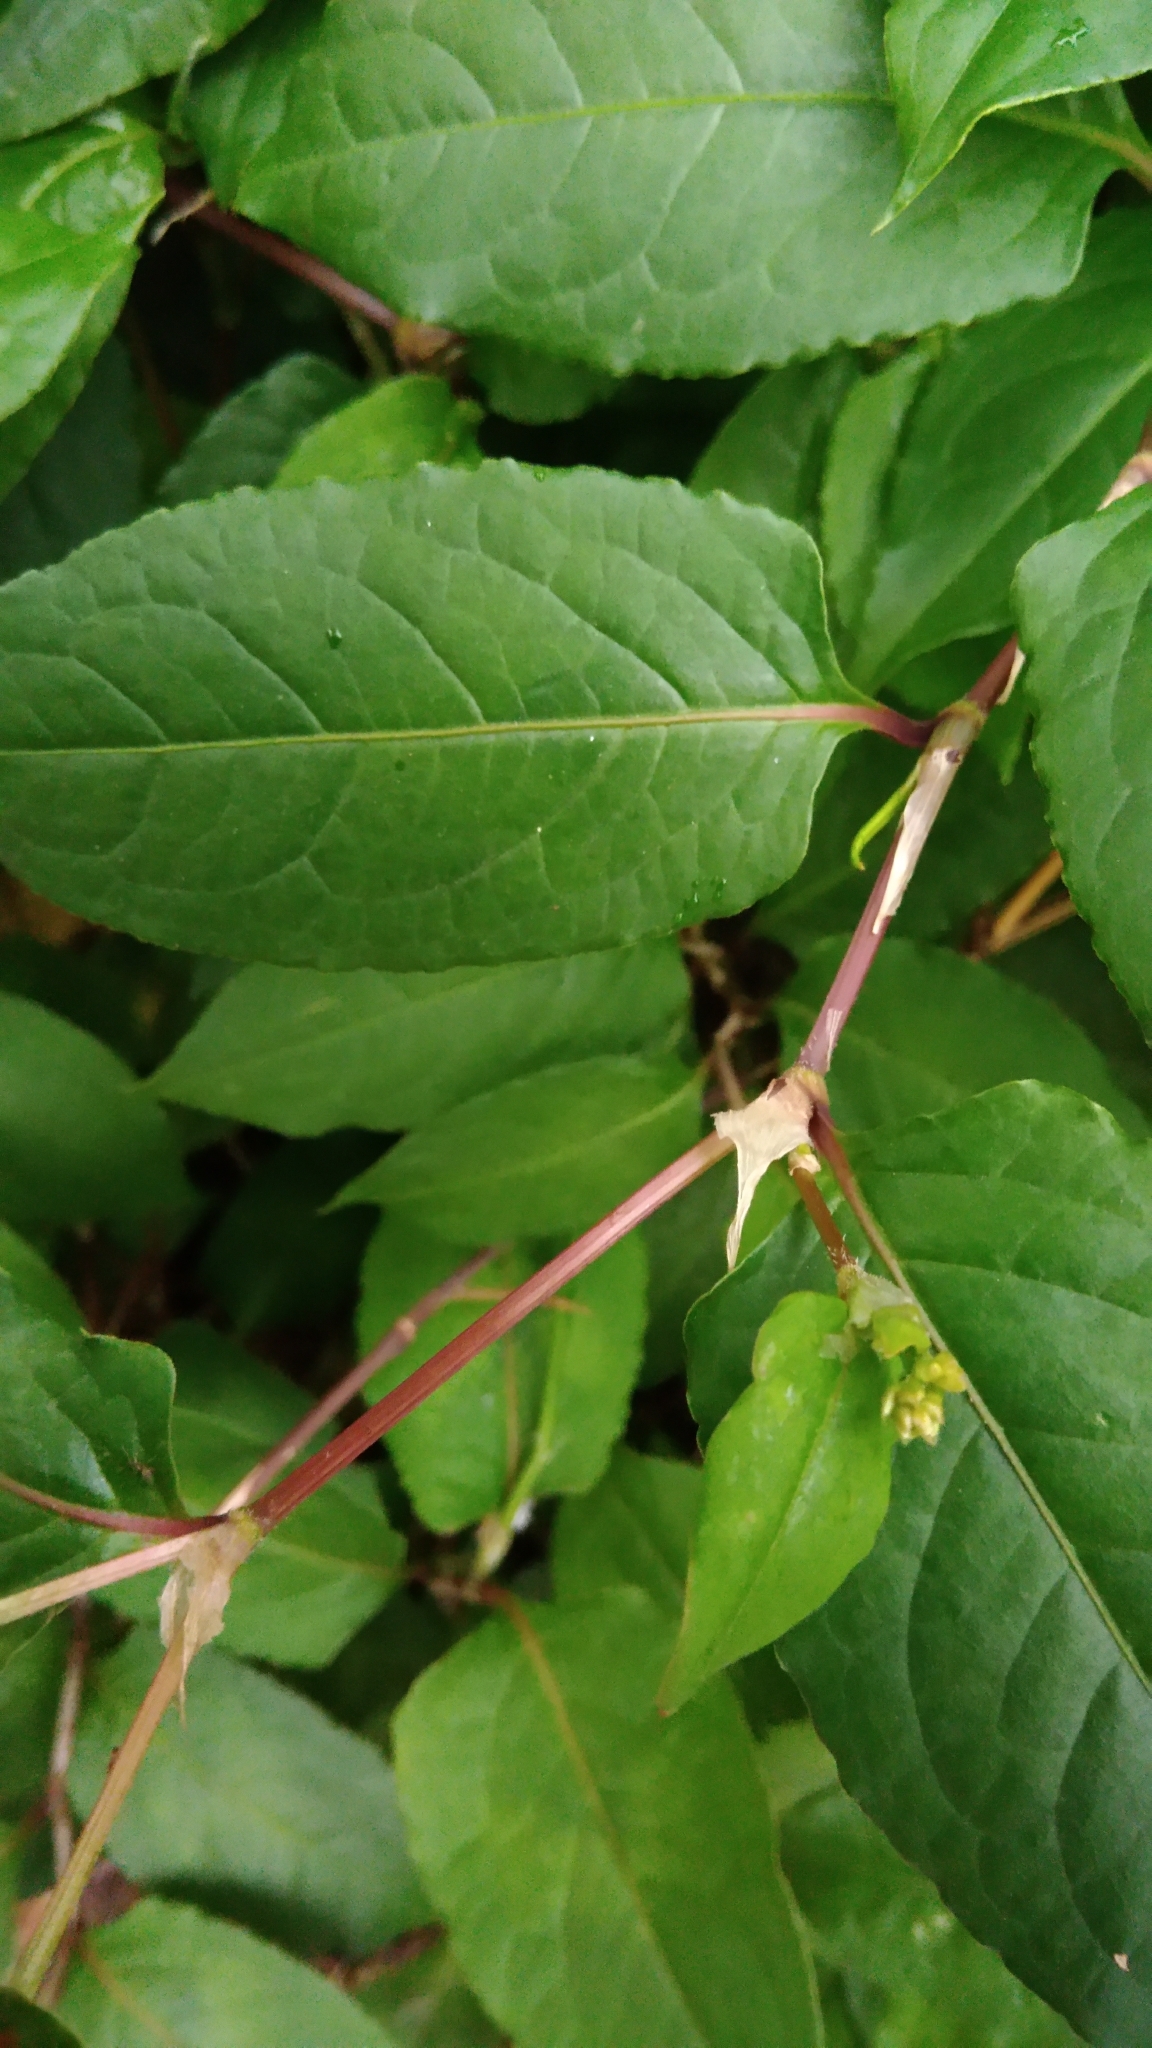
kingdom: Plantae
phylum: Tracheophyta
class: Magnoliopsida
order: Caryophyllales
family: Polygonaceae
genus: Persicaria
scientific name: Persicaria chinensis
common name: Chinese knotweed
